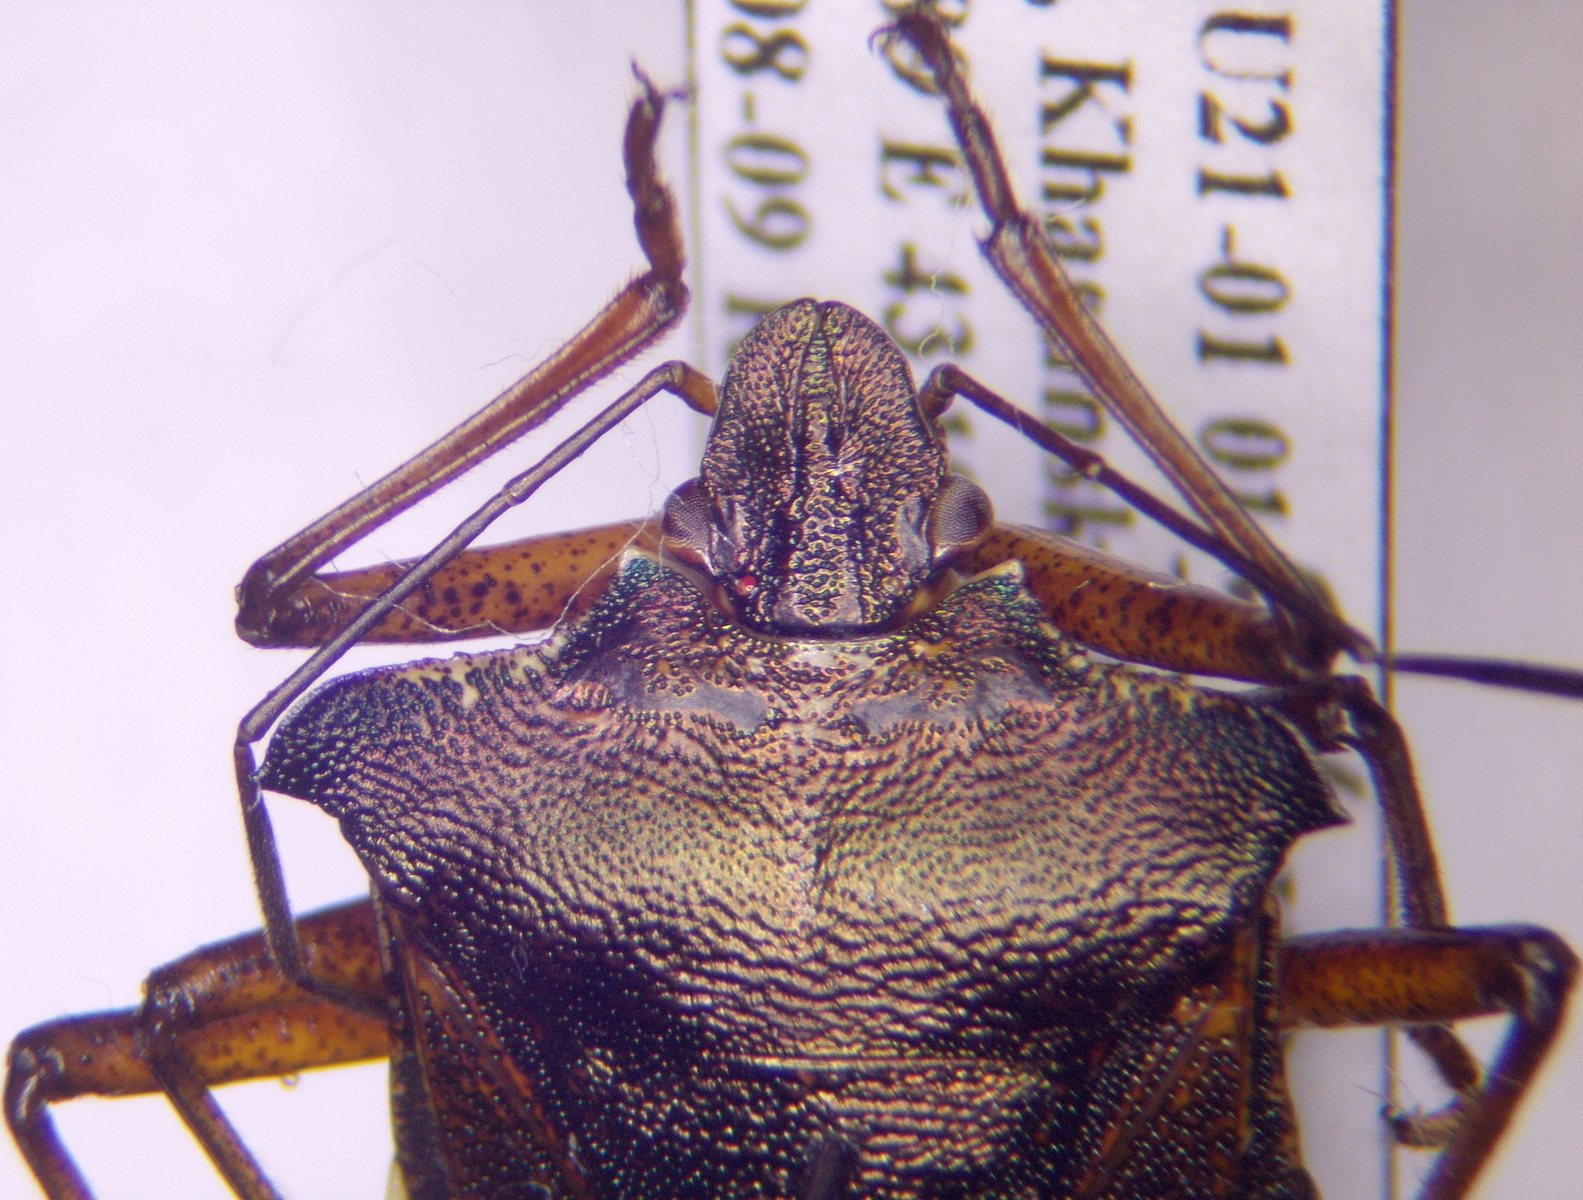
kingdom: Animalia
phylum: Arthropoda
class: Insecta
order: Hemiptera
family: Pentatomidae
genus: Pentatoma
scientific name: Pentatoma rufipes
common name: Forest bug
